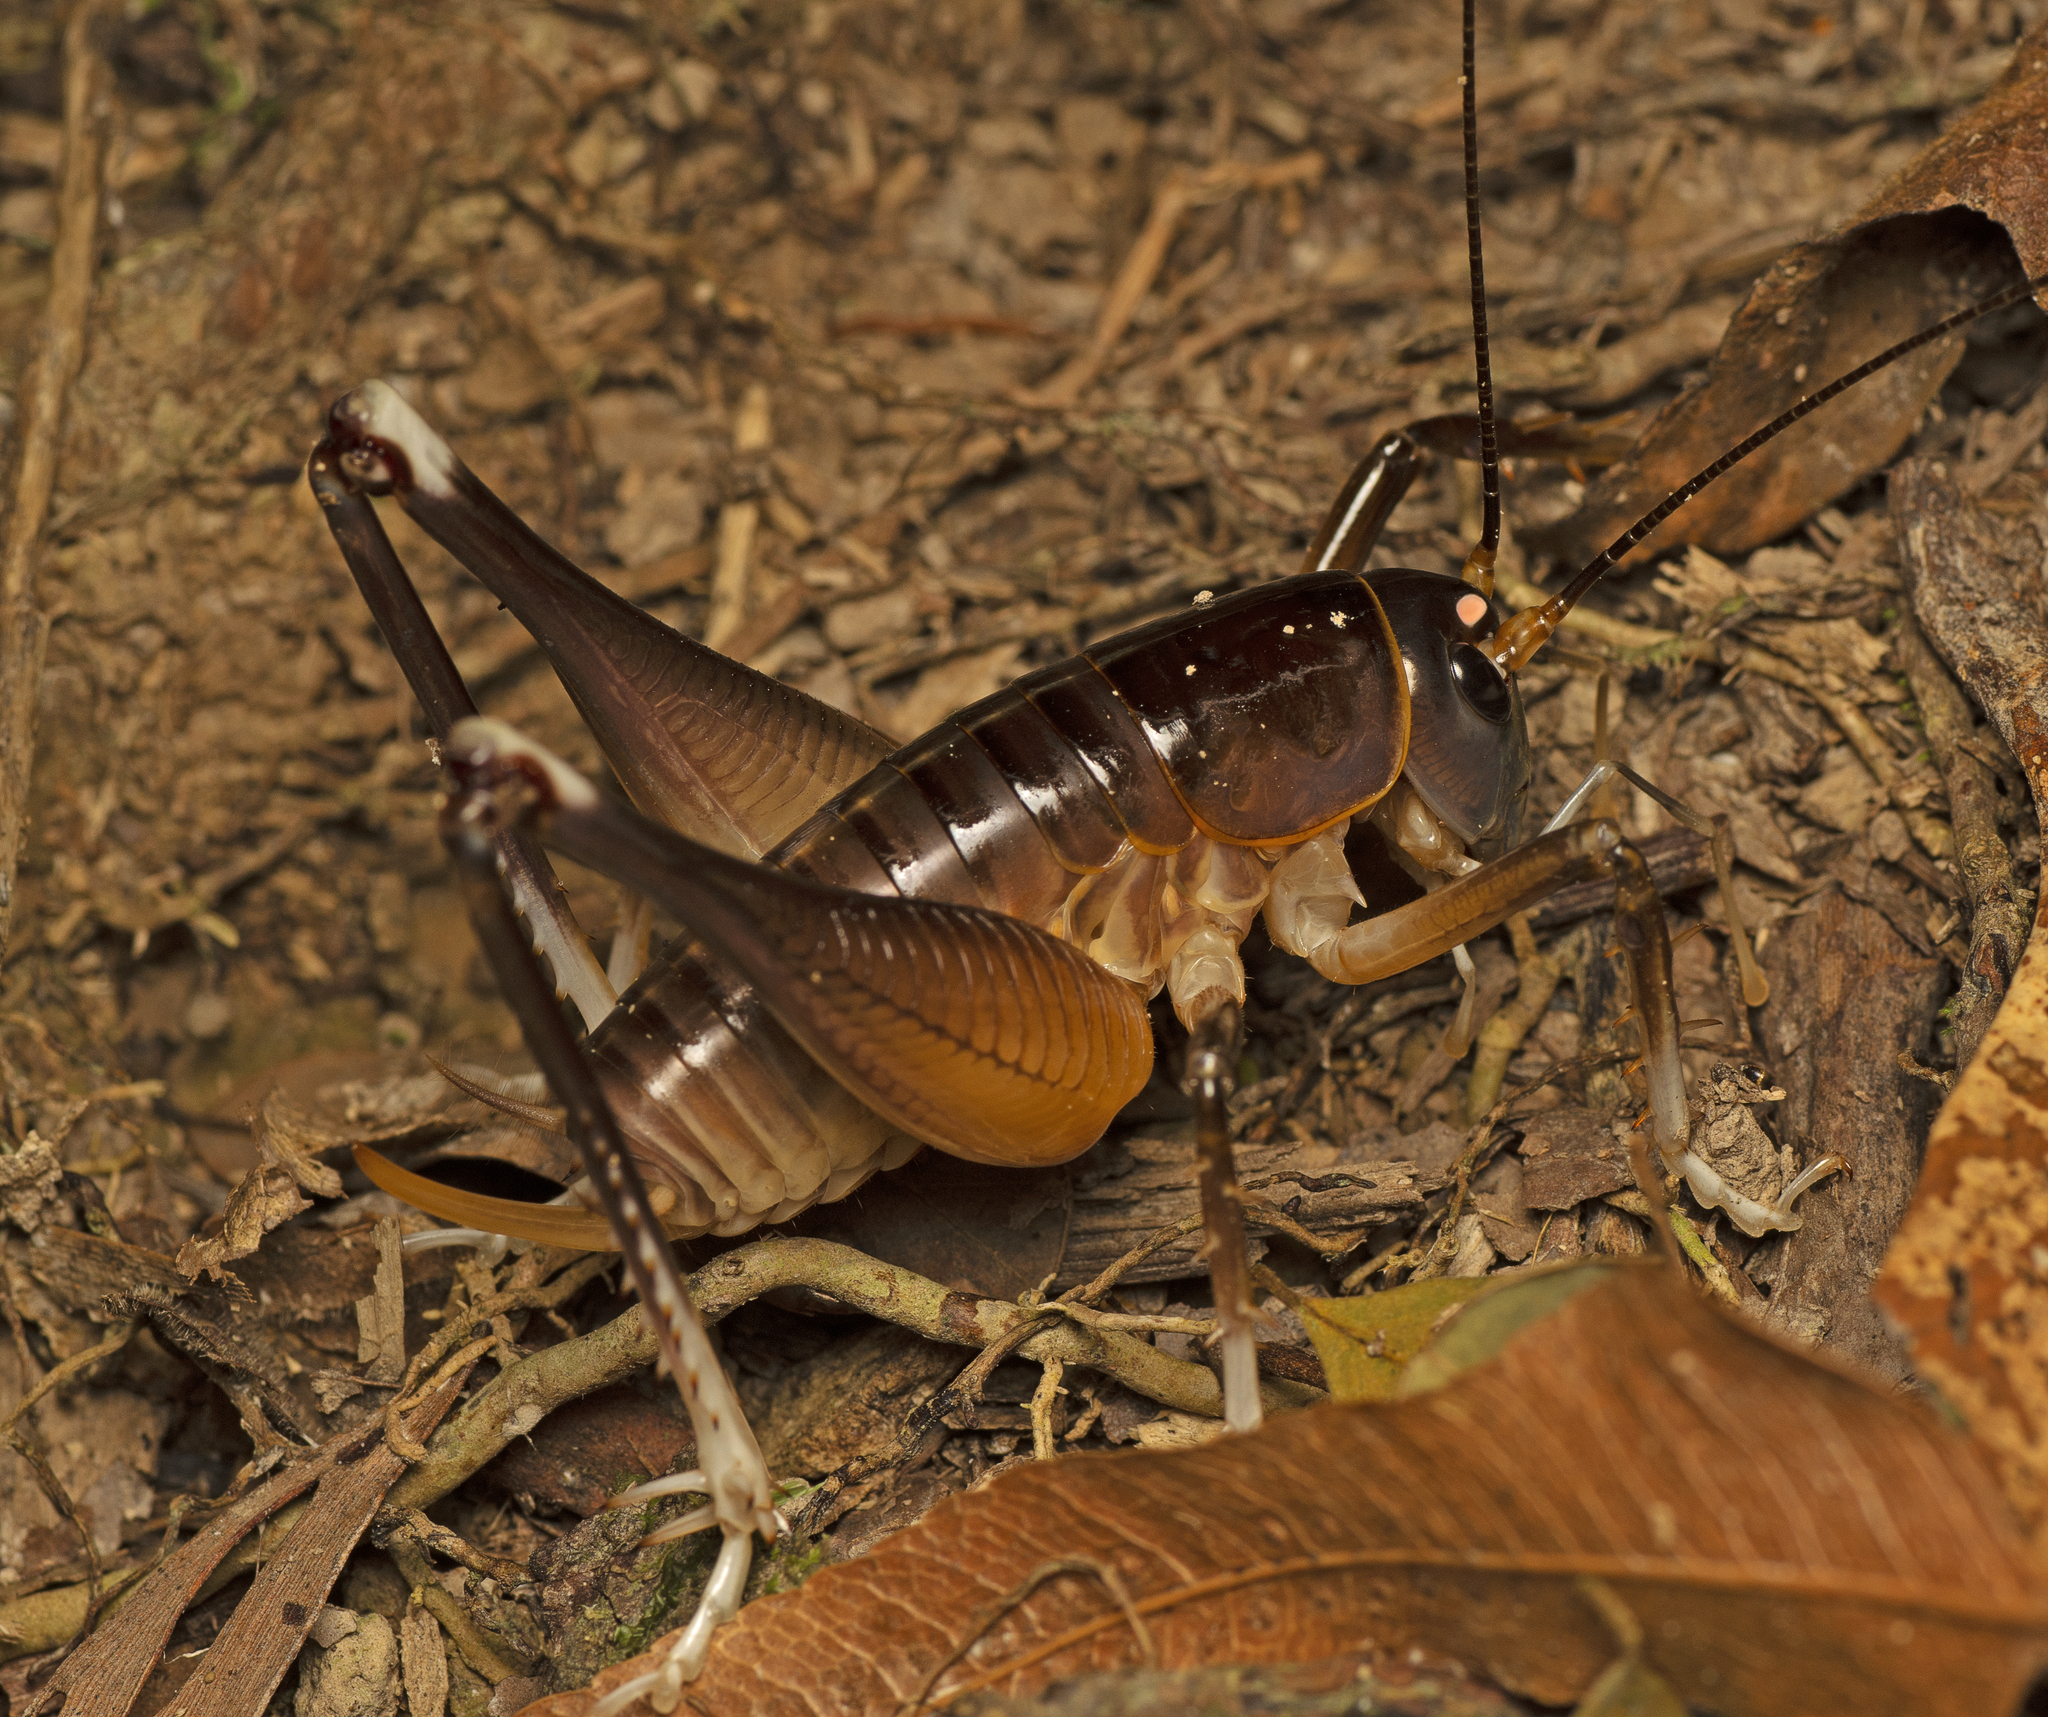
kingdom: Animalia
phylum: Arthropoda
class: Insecta
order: Orthoptera
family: Anostostomatidae
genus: Penalva
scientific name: Penalva flavocalceata
